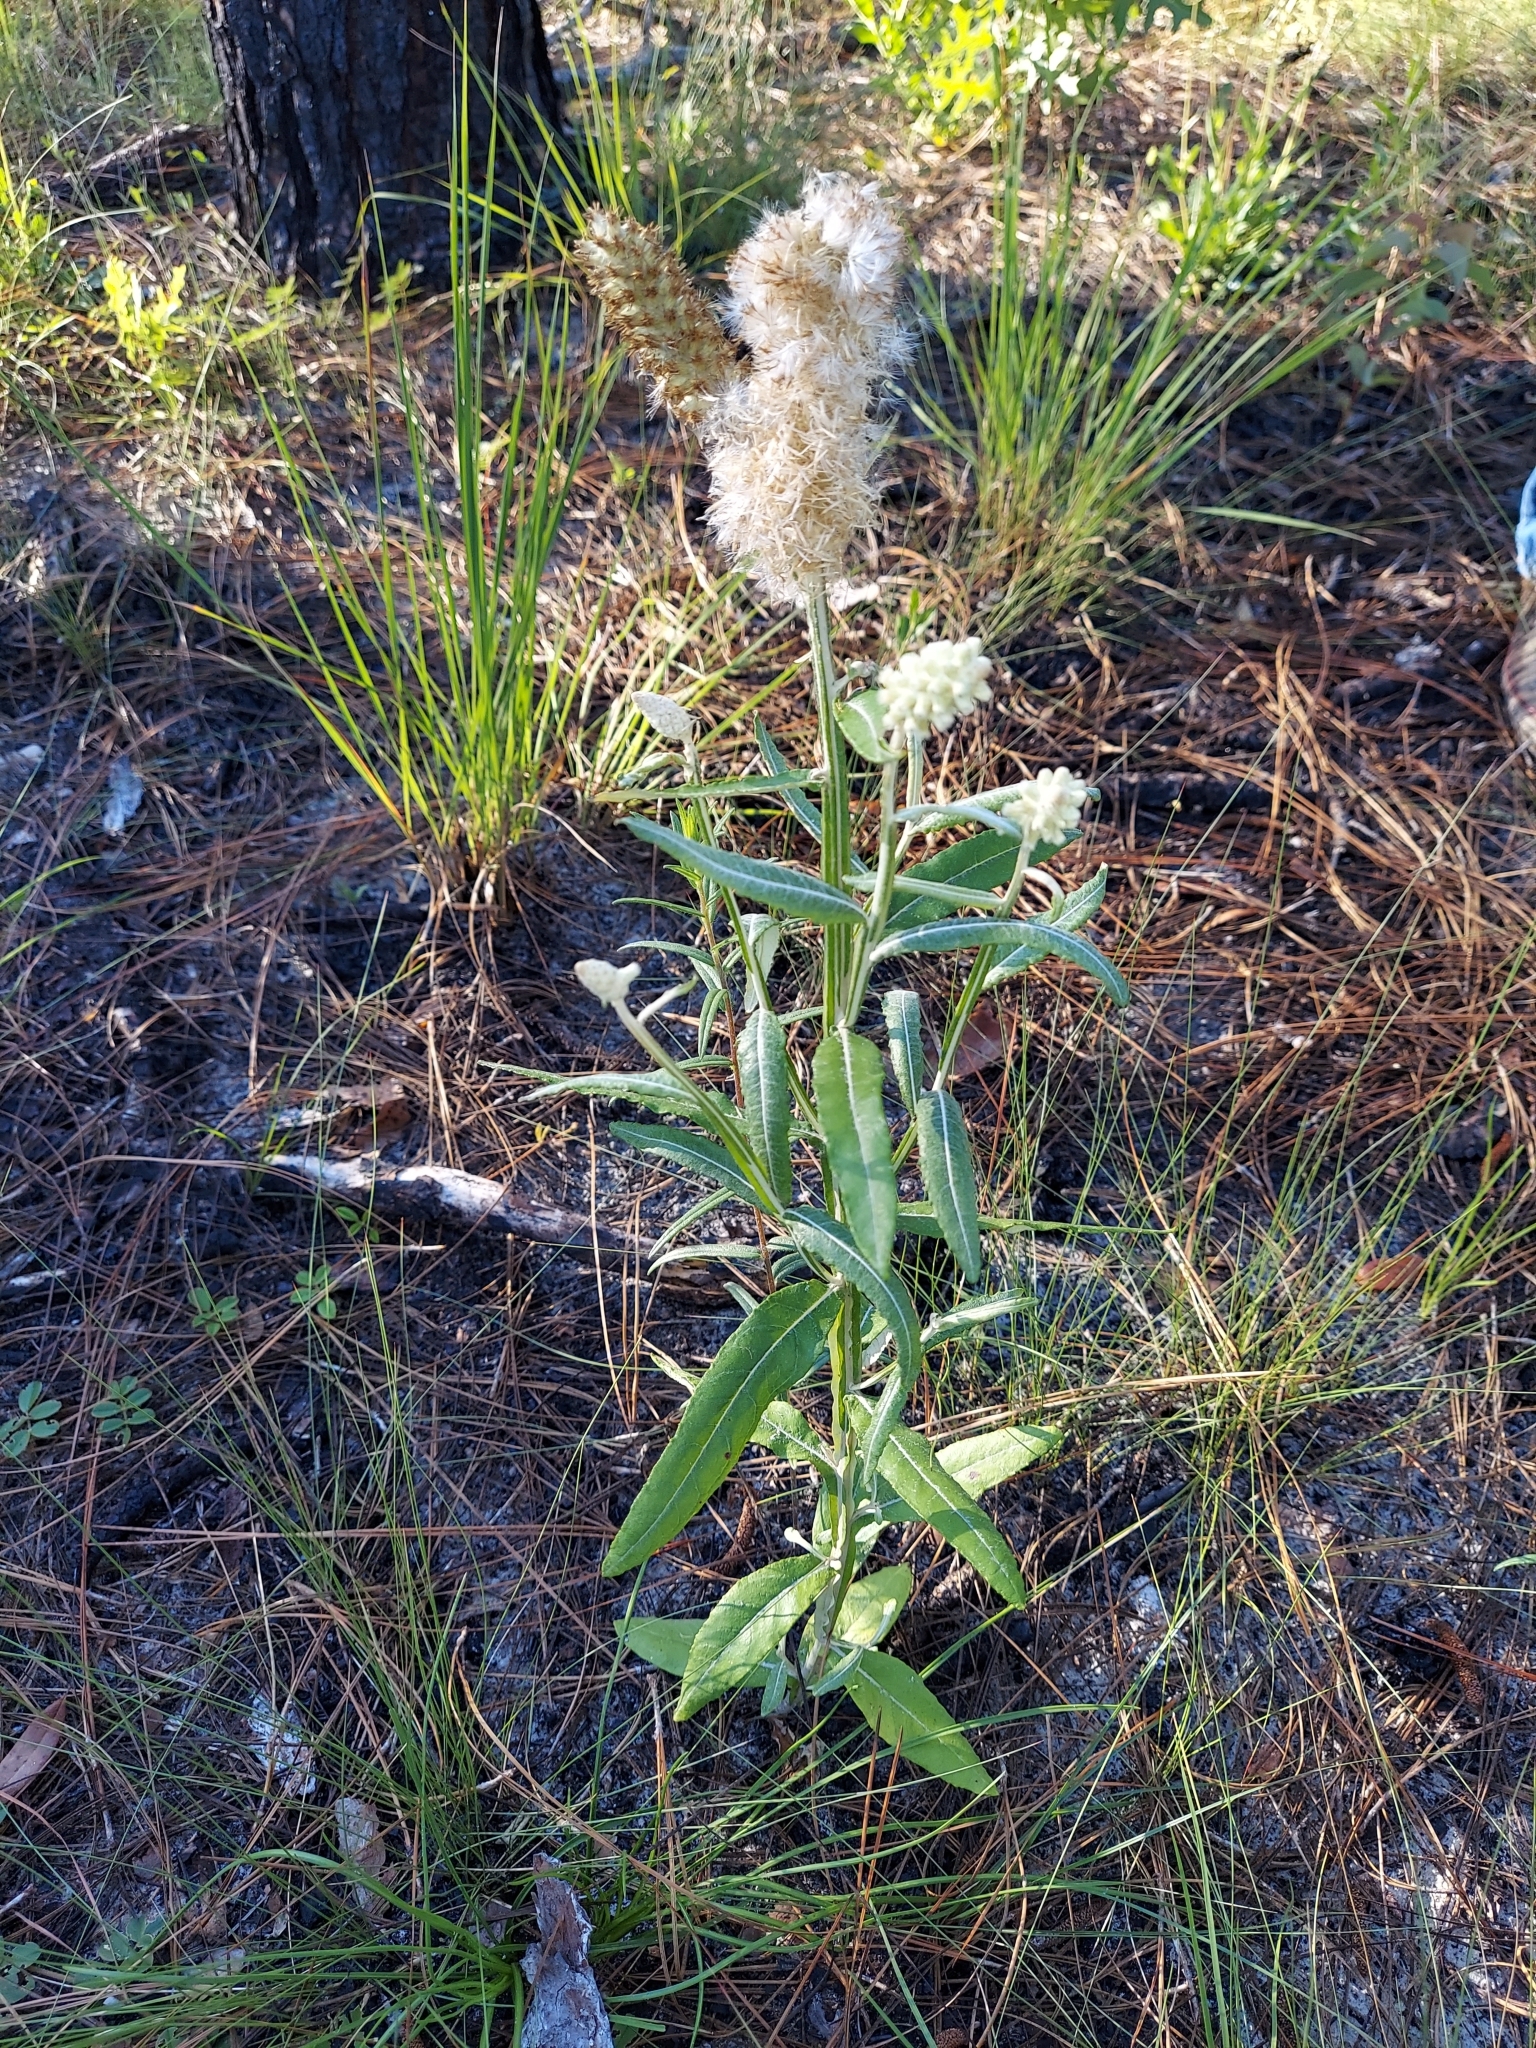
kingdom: Plantae
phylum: Tracheophyta
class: Magnoliopsida
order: Asterales
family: Asteraceae
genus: Pterocaulon
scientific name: Pterocaulon pycnostachyum
